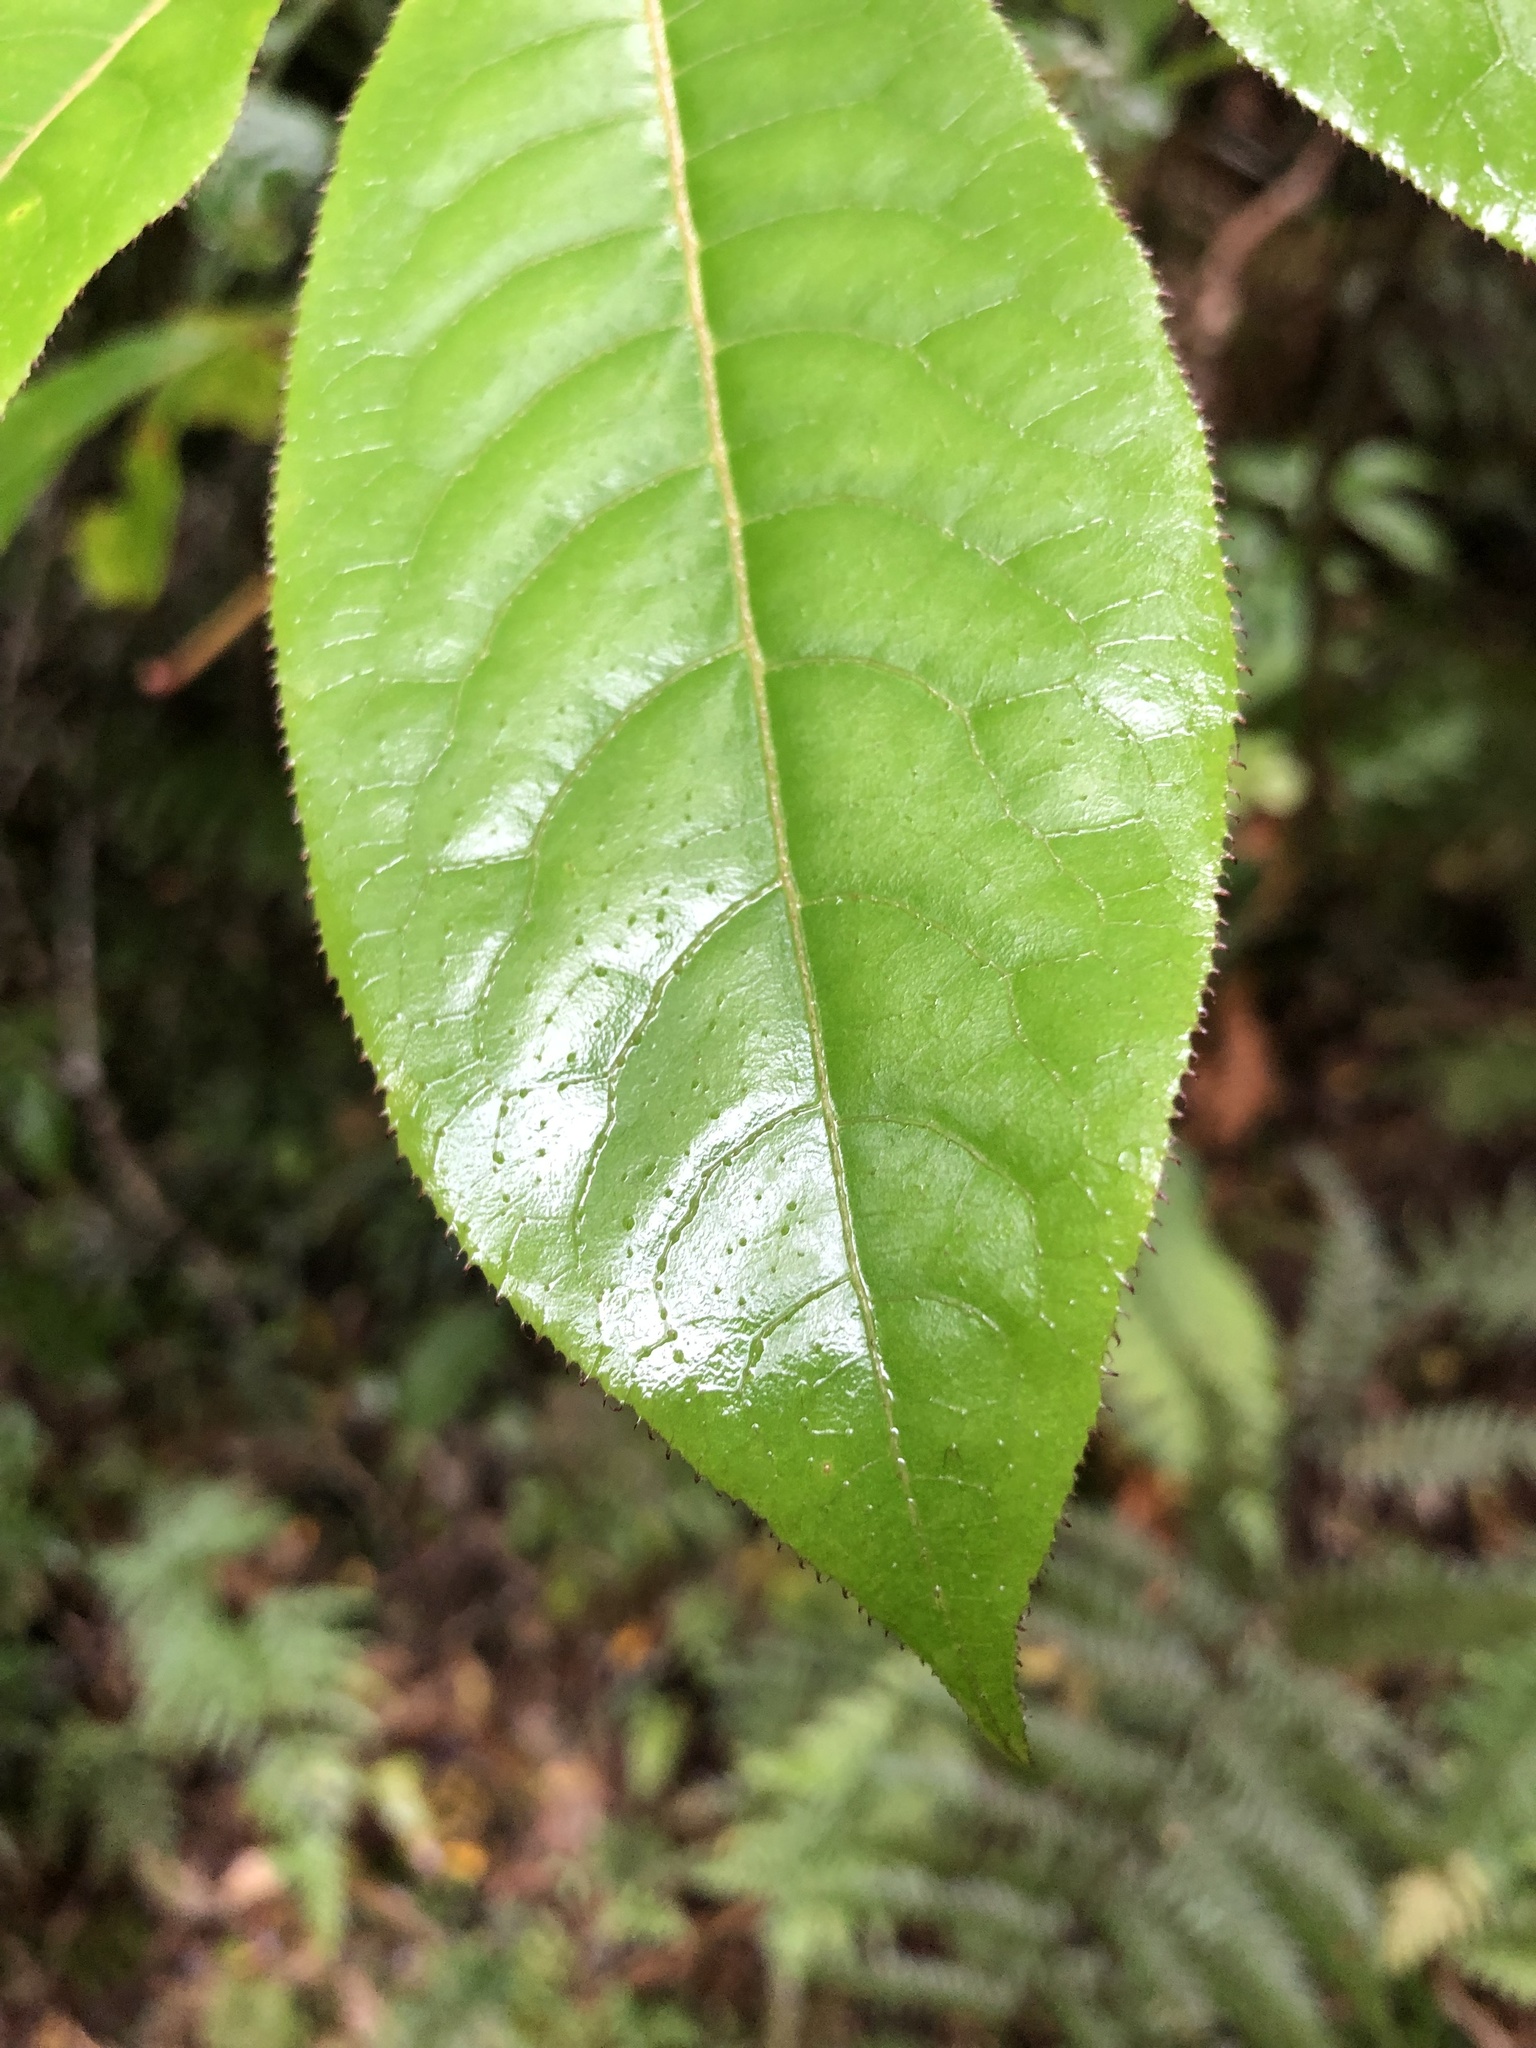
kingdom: Plantae
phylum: Tracheophyta
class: Magnoliopsida
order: Apiales
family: Araliaceae
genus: Schefflera
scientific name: Schefflera digitata
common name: Pate
